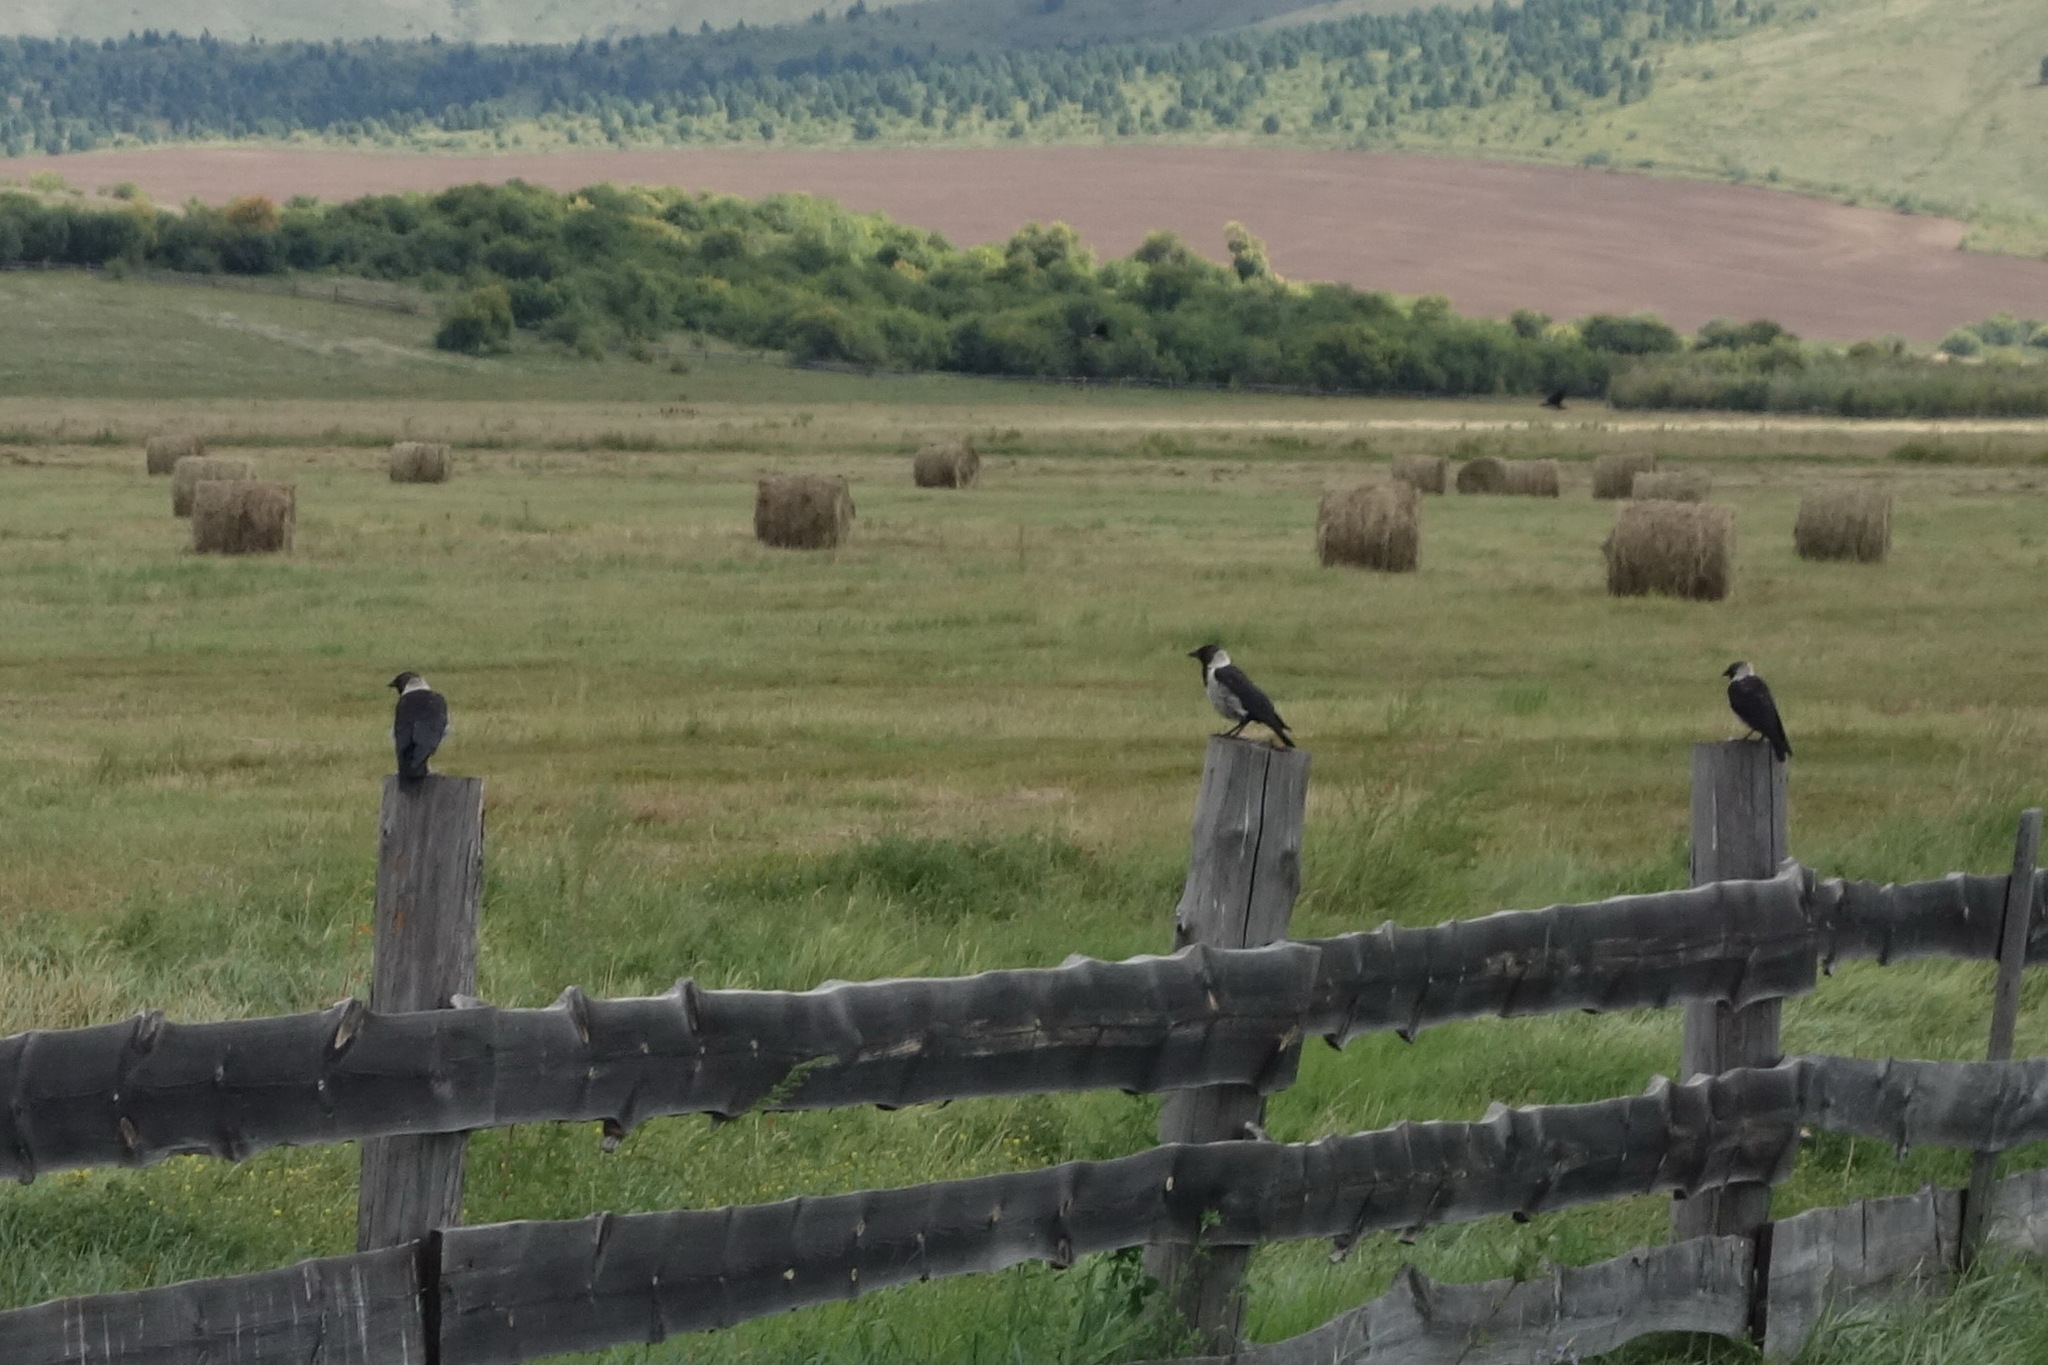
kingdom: Animalia
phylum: Chordata
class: Aves
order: Passeriformes
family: Corvidae
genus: Coloeus
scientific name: Coloeus dauuricus
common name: Daurian jackdaw
